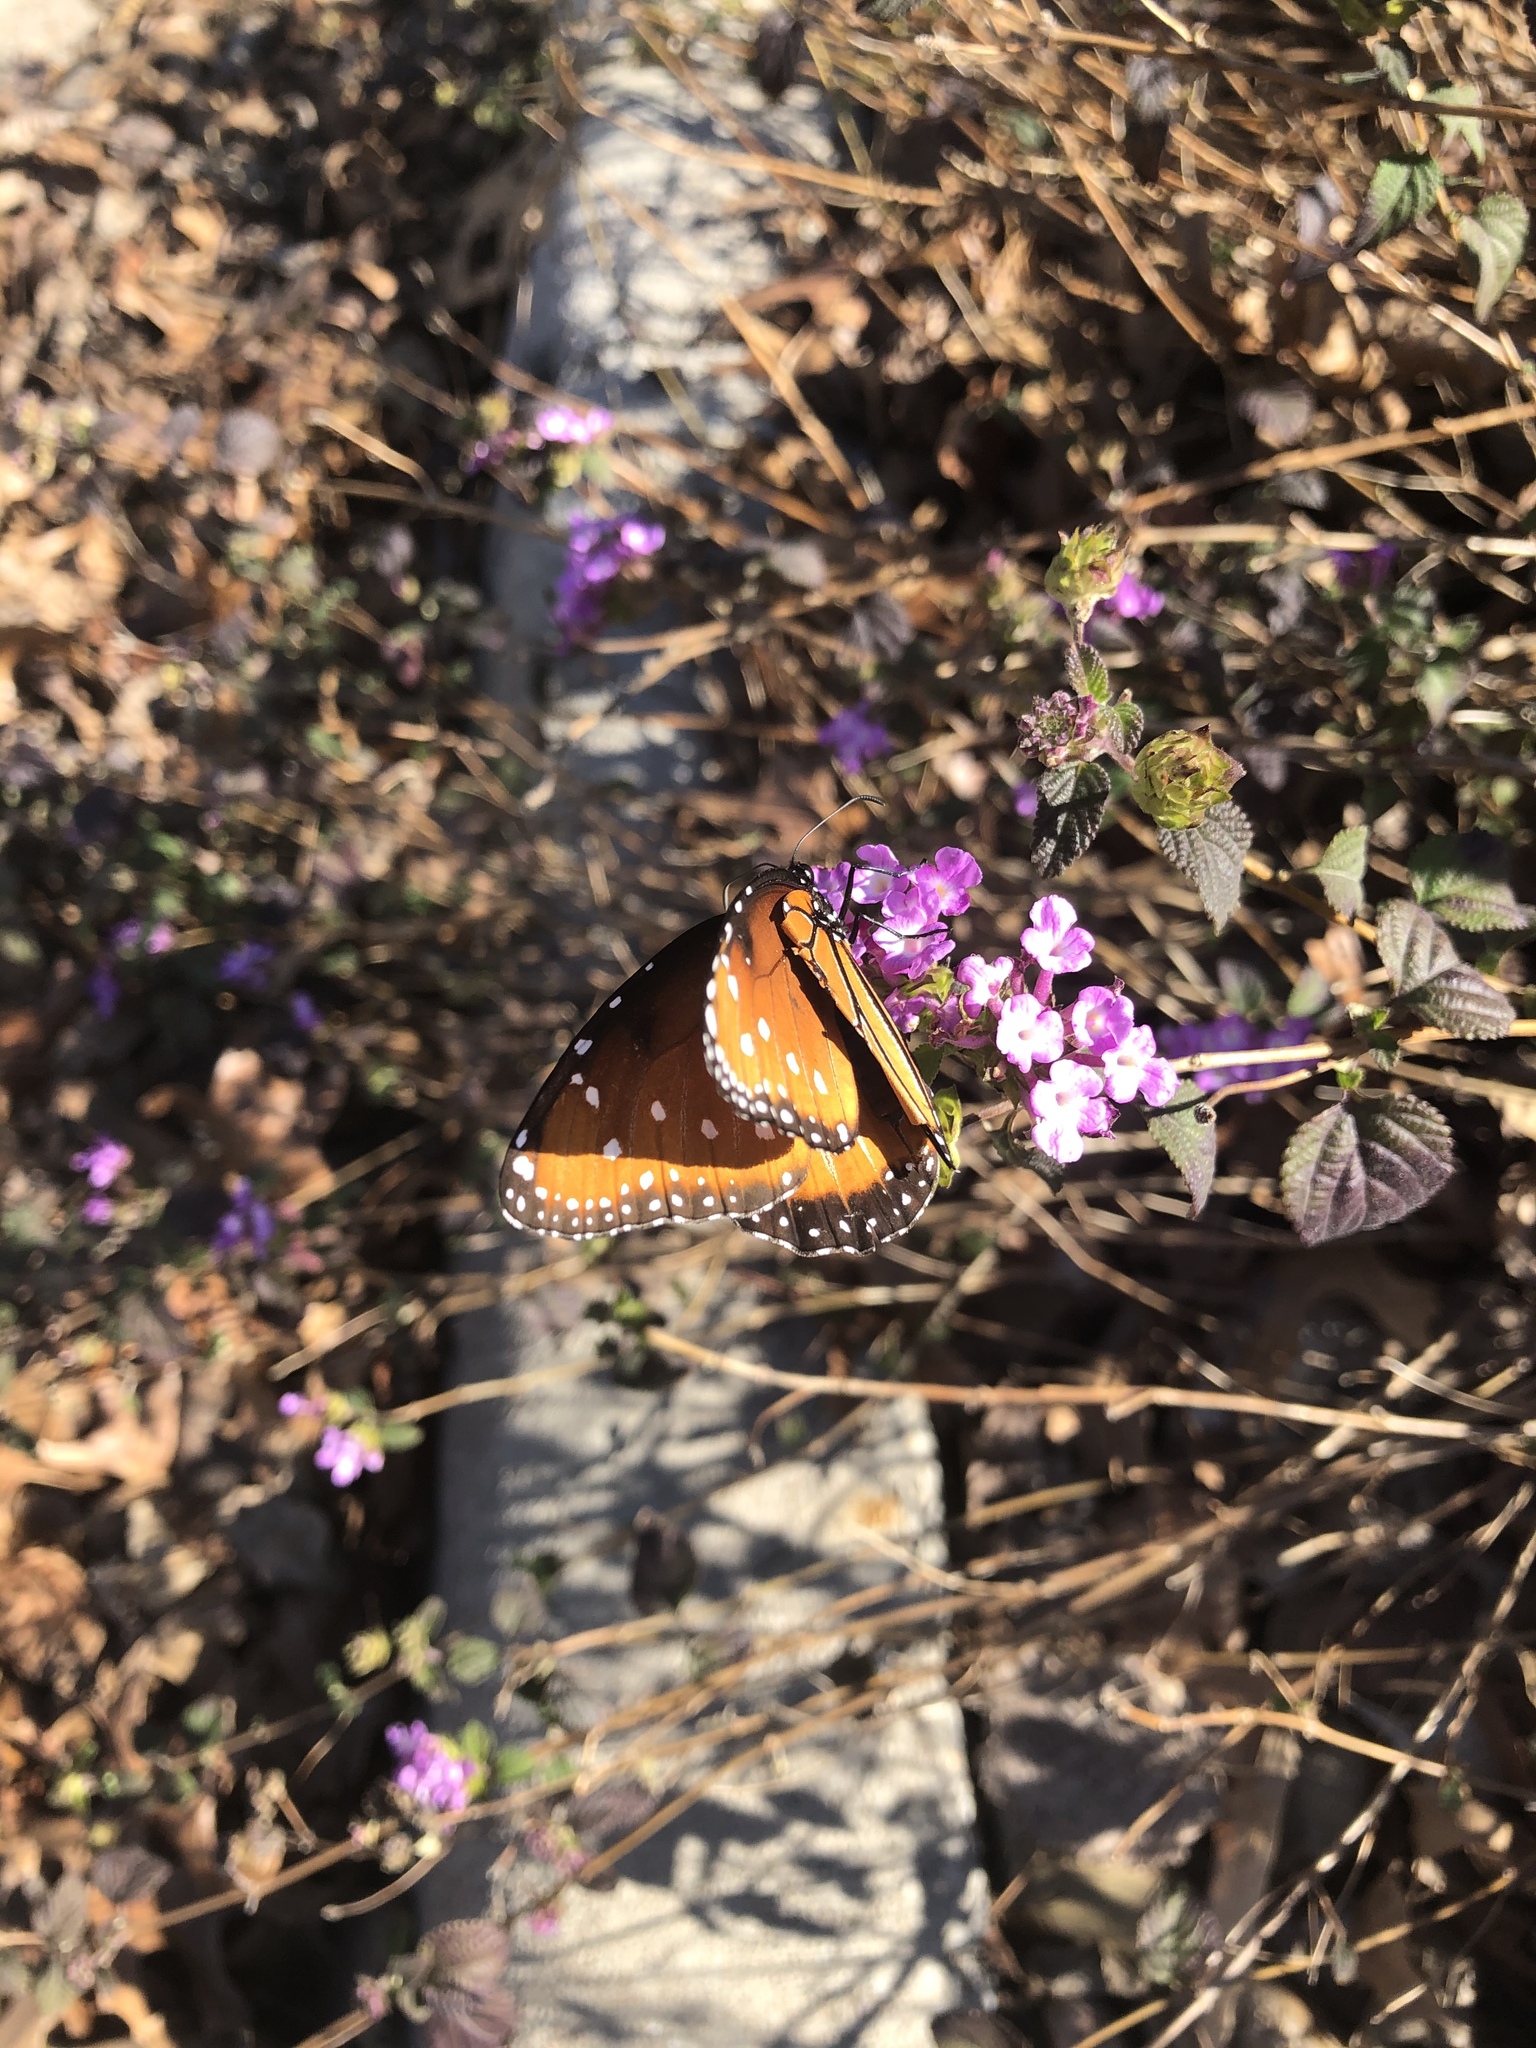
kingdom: Animalia
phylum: Arthropoda
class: Insecta
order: Lepidoptera
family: Nymphalidae
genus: Danaus
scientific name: Danaus gilippus
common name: Queen
